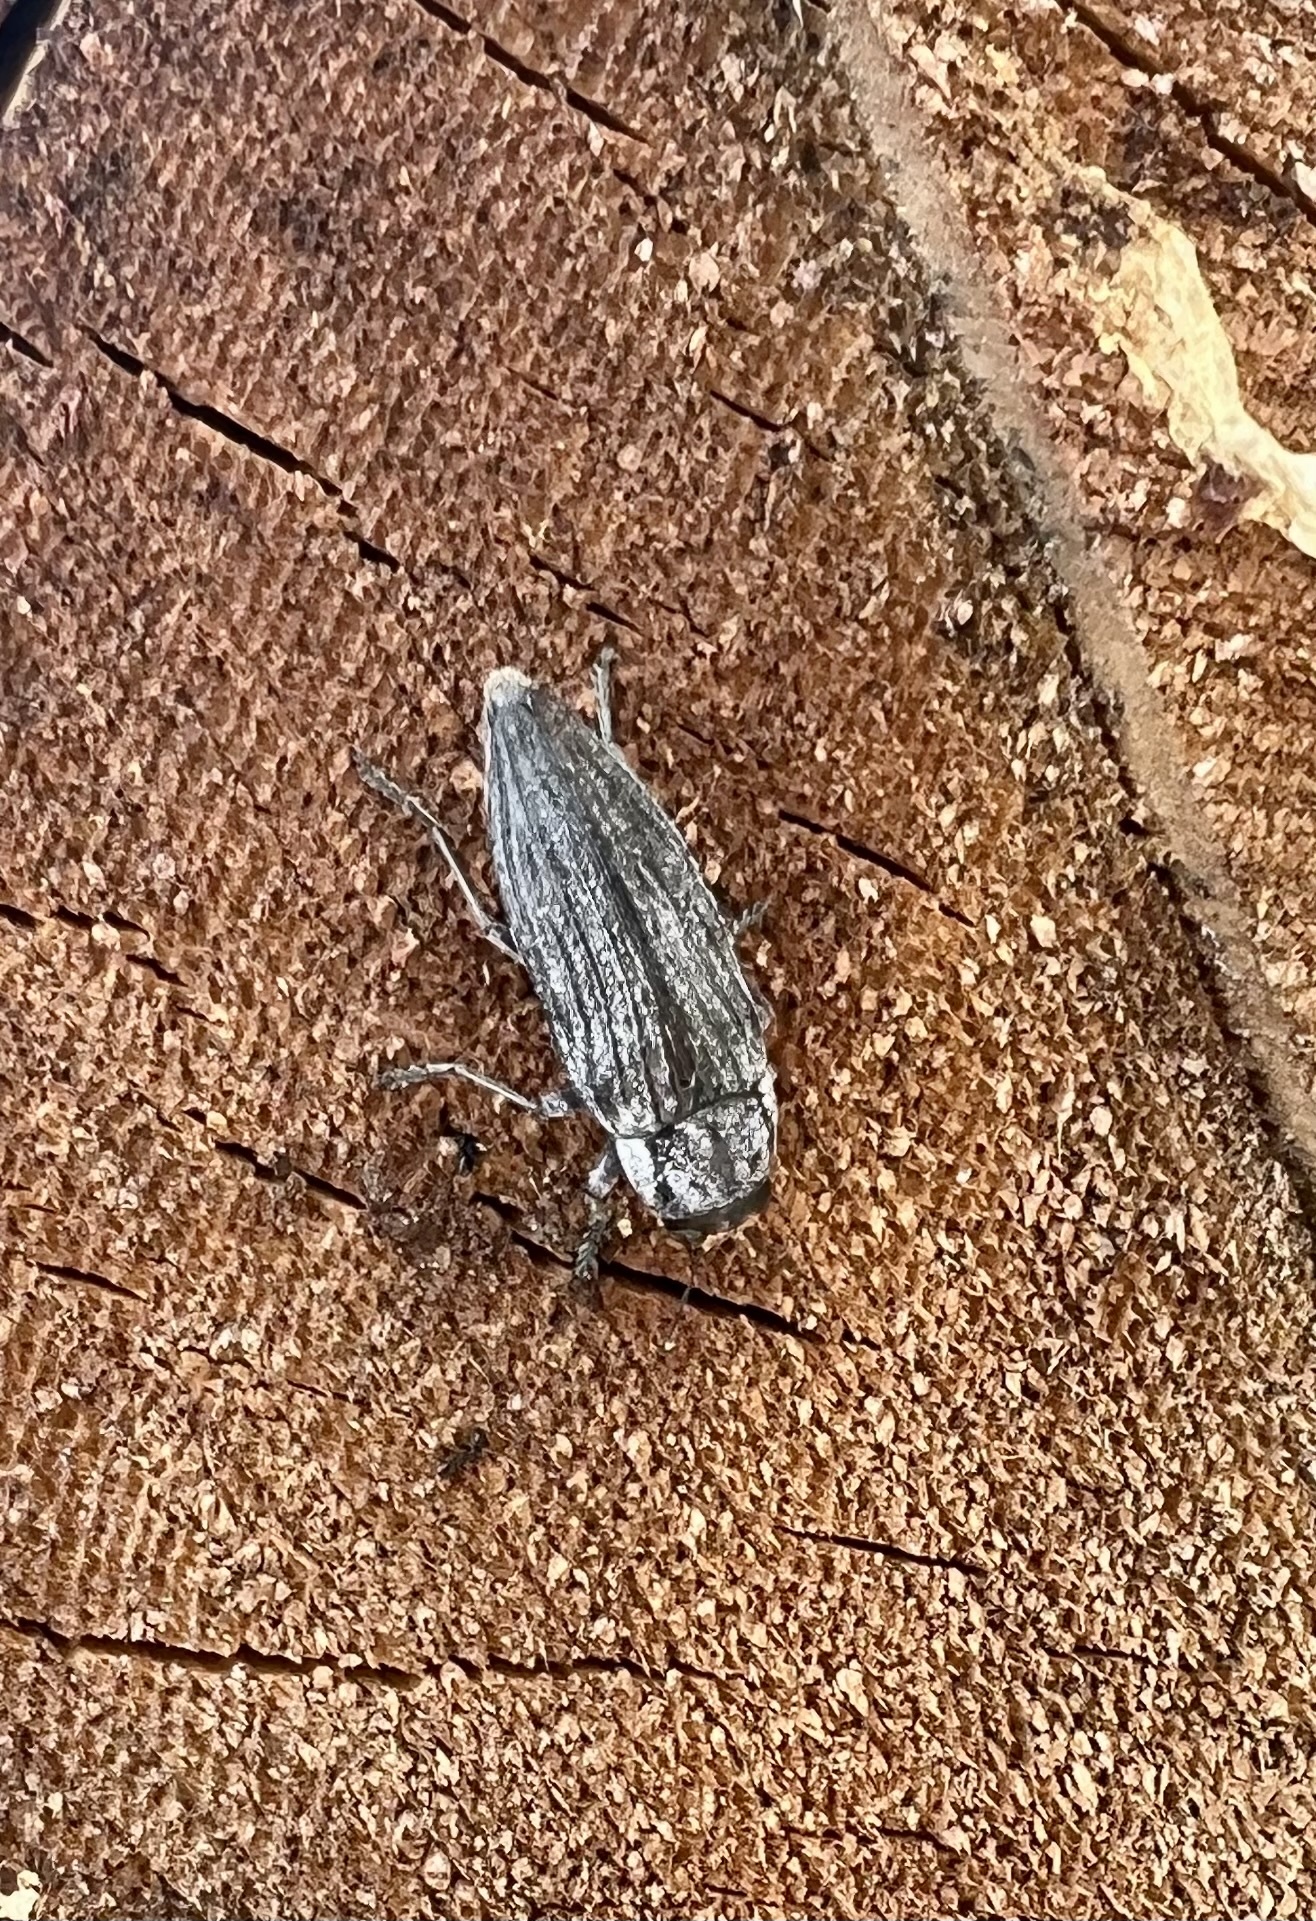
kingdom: Animalia
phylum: Arthropoda
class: Insecta
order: Coleoptera
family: Buprestidae
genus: Buprestis
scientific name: Buprestis lyrata
